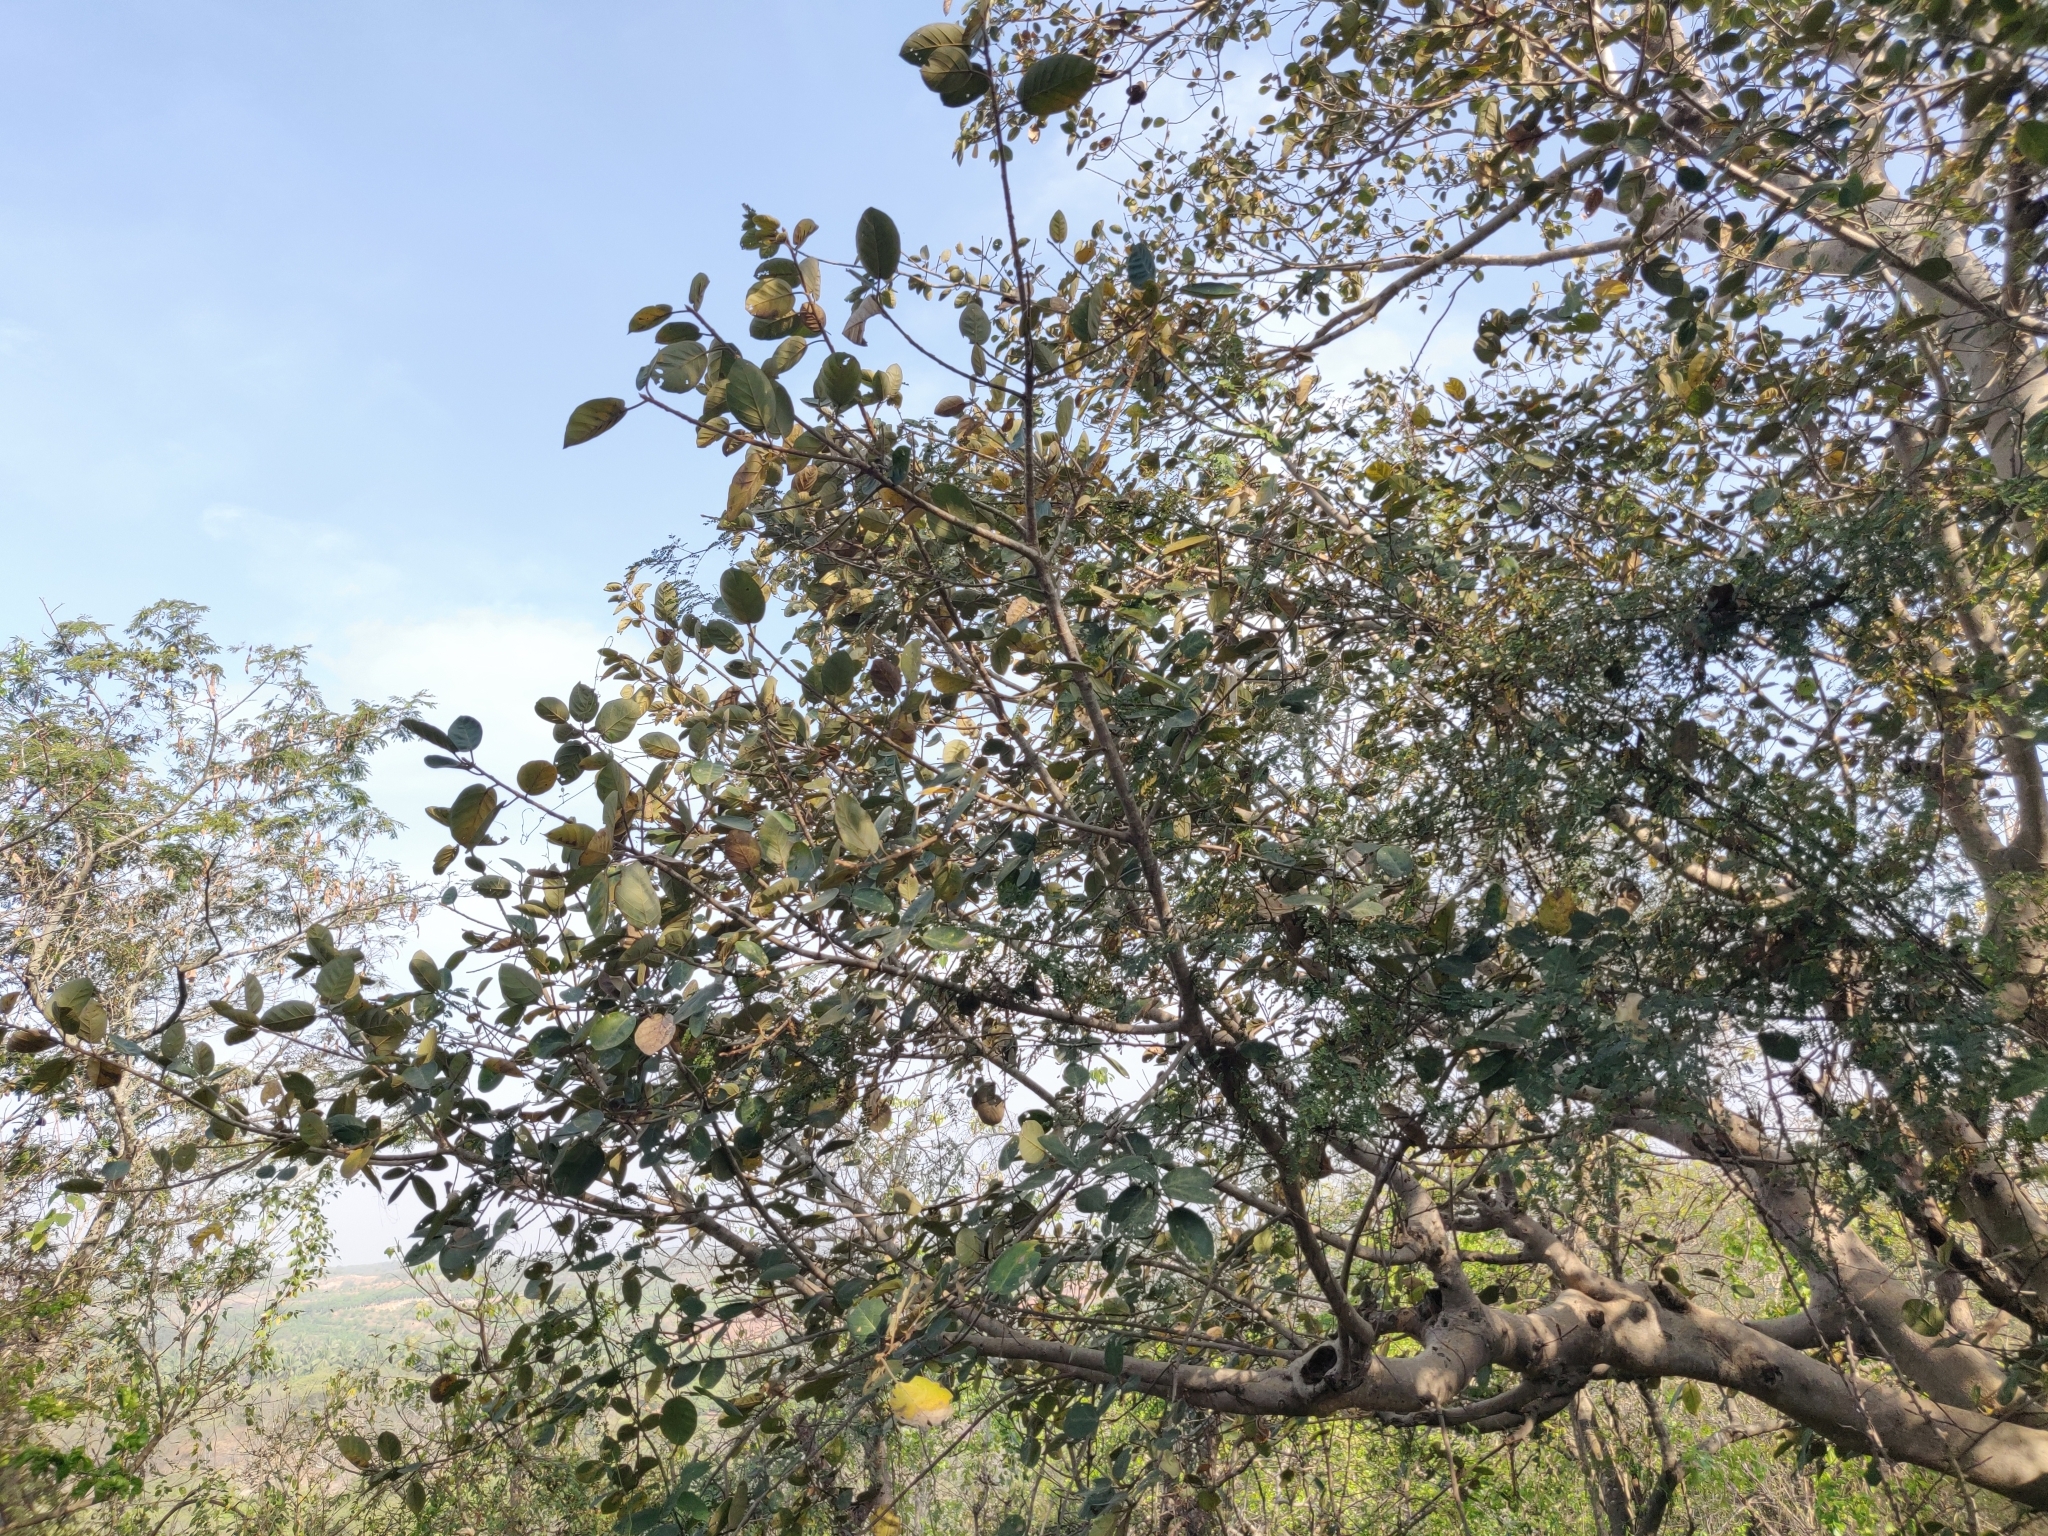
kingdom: Plantae
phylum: Tracheophyta
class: Magnoliopsida
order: Rosales
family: Moraceae
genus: Ficus
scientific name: Ficus mollis
